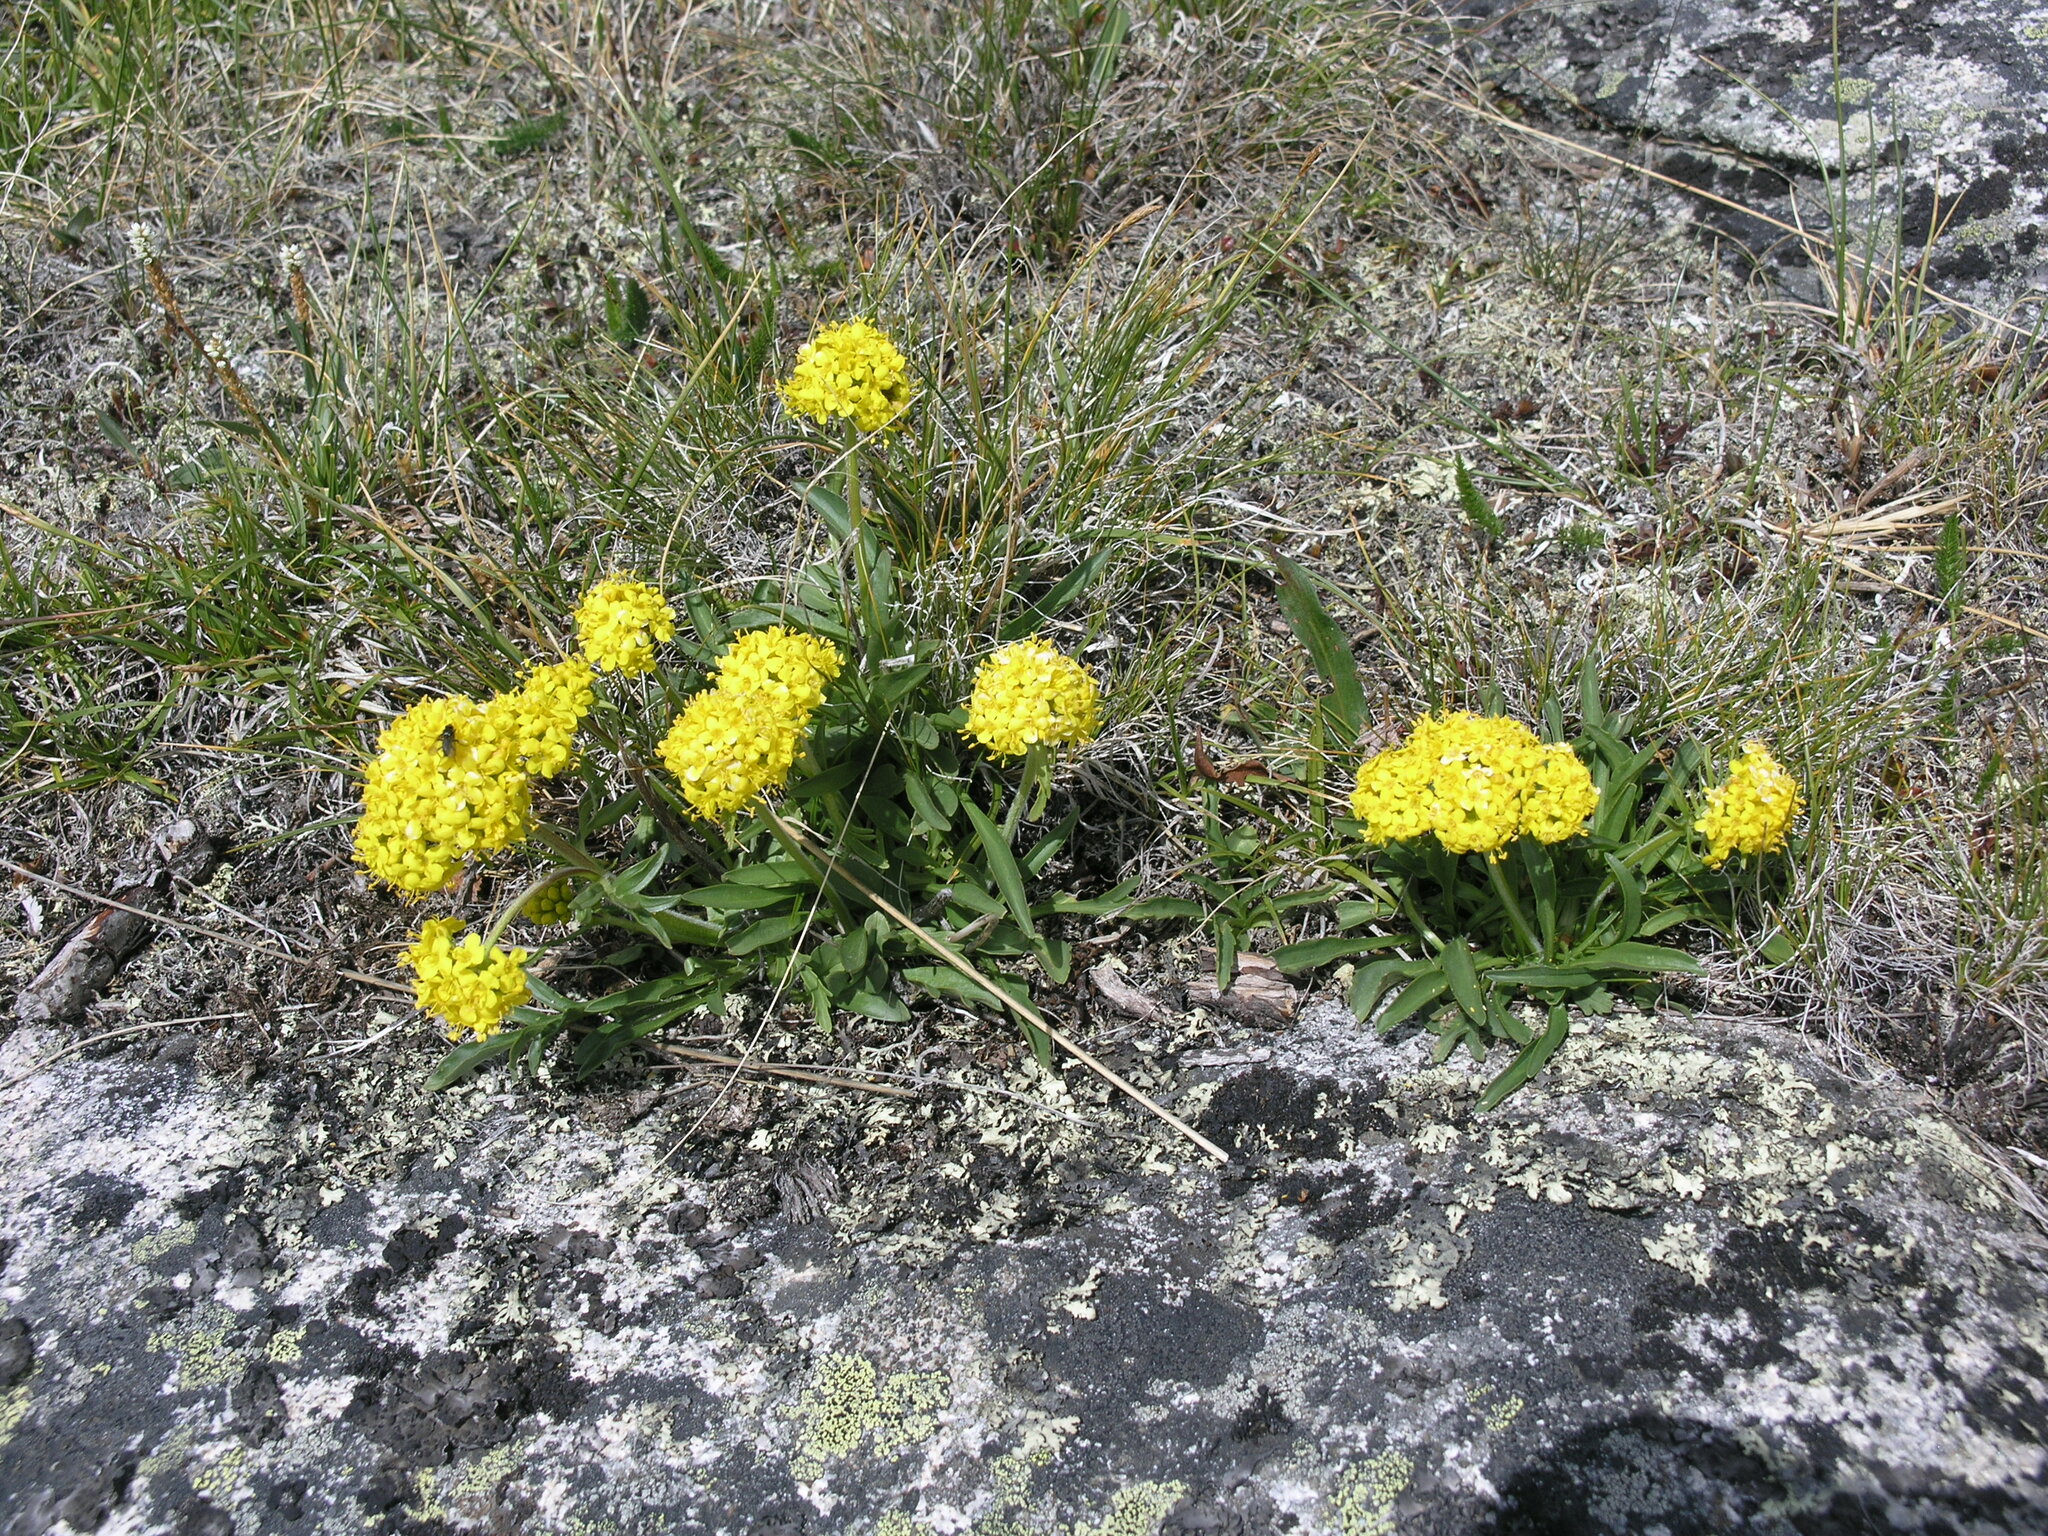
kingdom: Plantae
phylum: Tracheophyta
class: Magnoliopsida
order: Dipsacales
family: Caprifoliaceae
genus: Patrinia
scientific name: Patrinia sibirica
